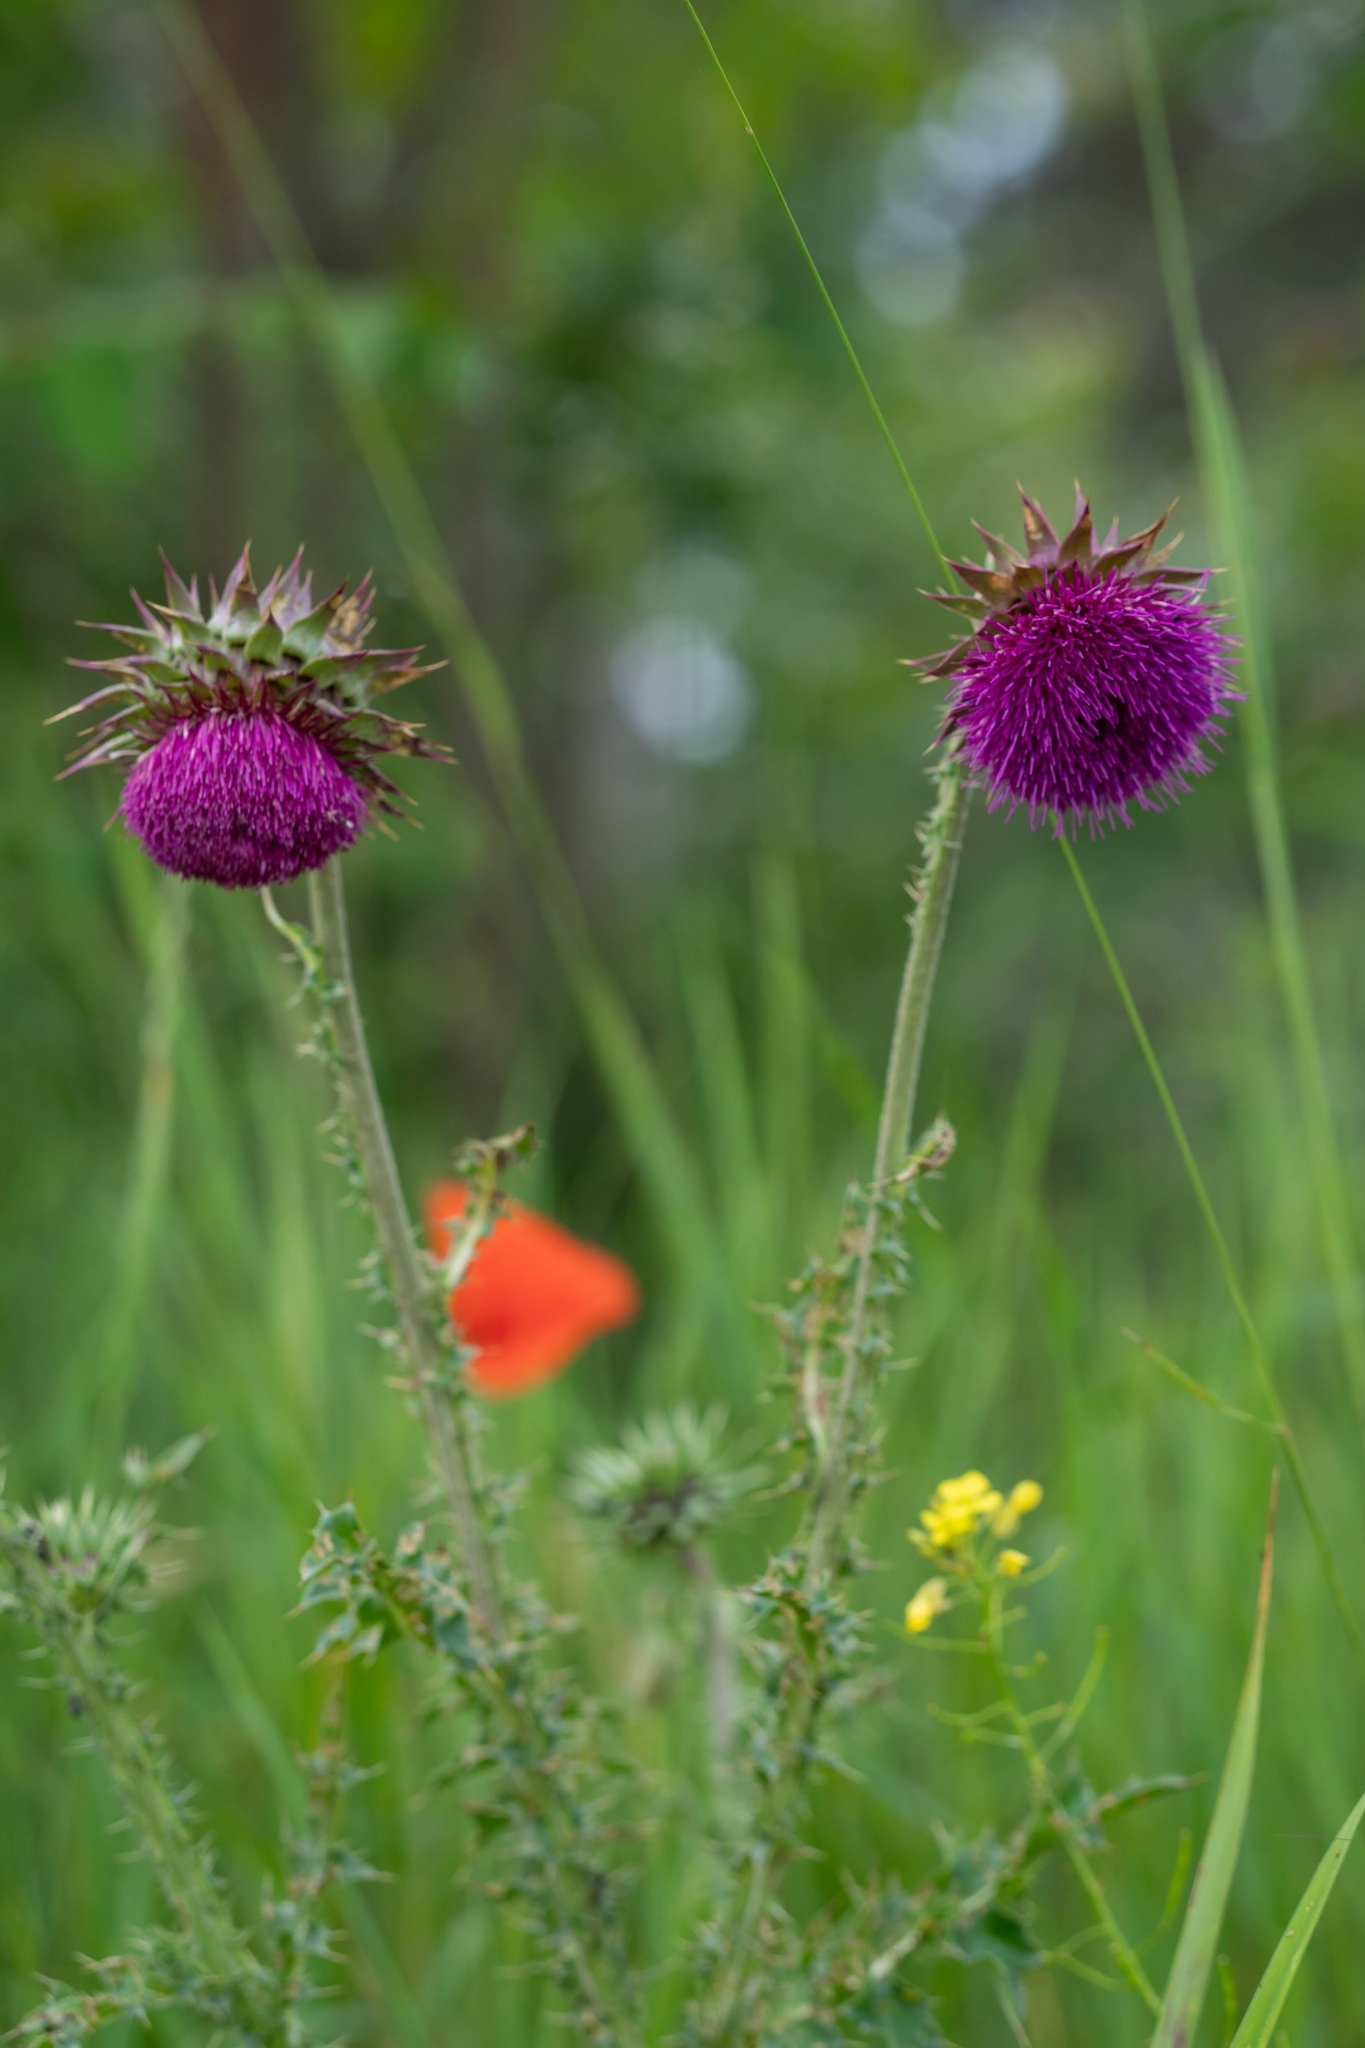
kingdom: Plantae
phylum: Tracheophyta
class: Magnoliopsida
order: Asterales
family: Asteraceae
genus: Carduus
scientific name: Carduus nutans
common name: Musk thistle
